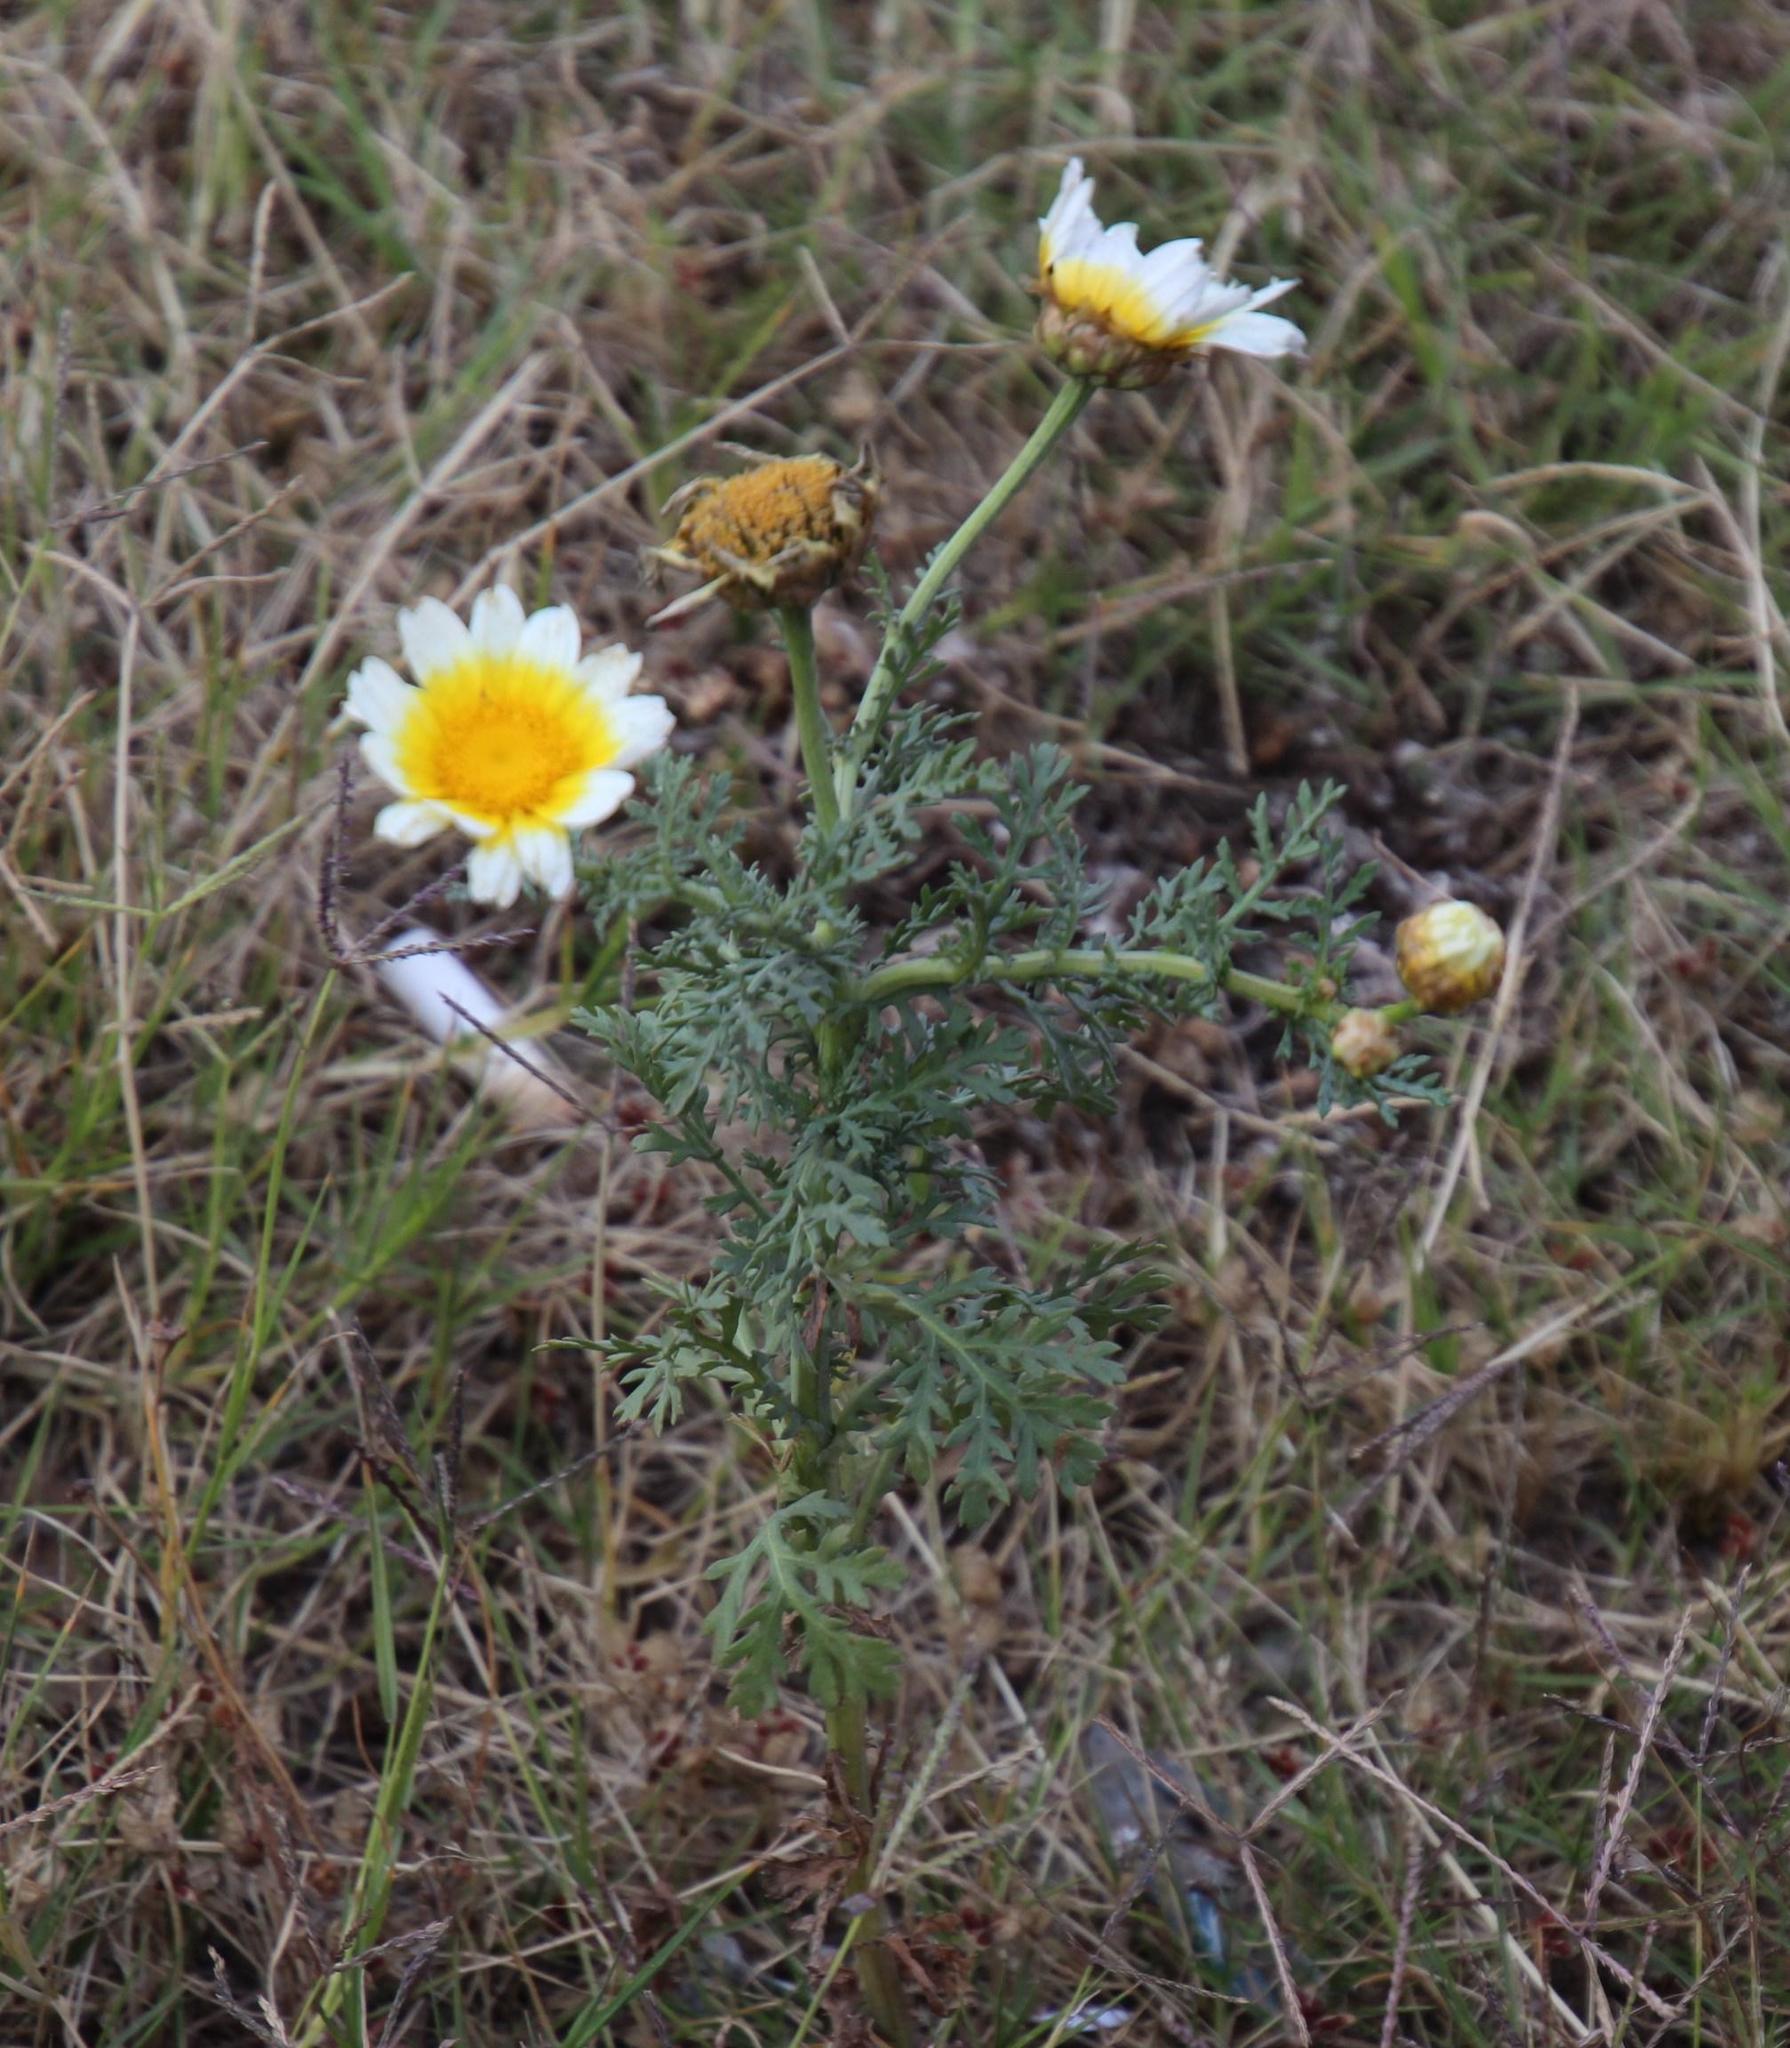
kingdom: Plantae
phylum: Tracheophyta
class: Magnoliopsida
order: Asterales
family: Asteraceae
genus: Glebionis
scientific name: Glebionis coronaria
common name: Crowndaisy
